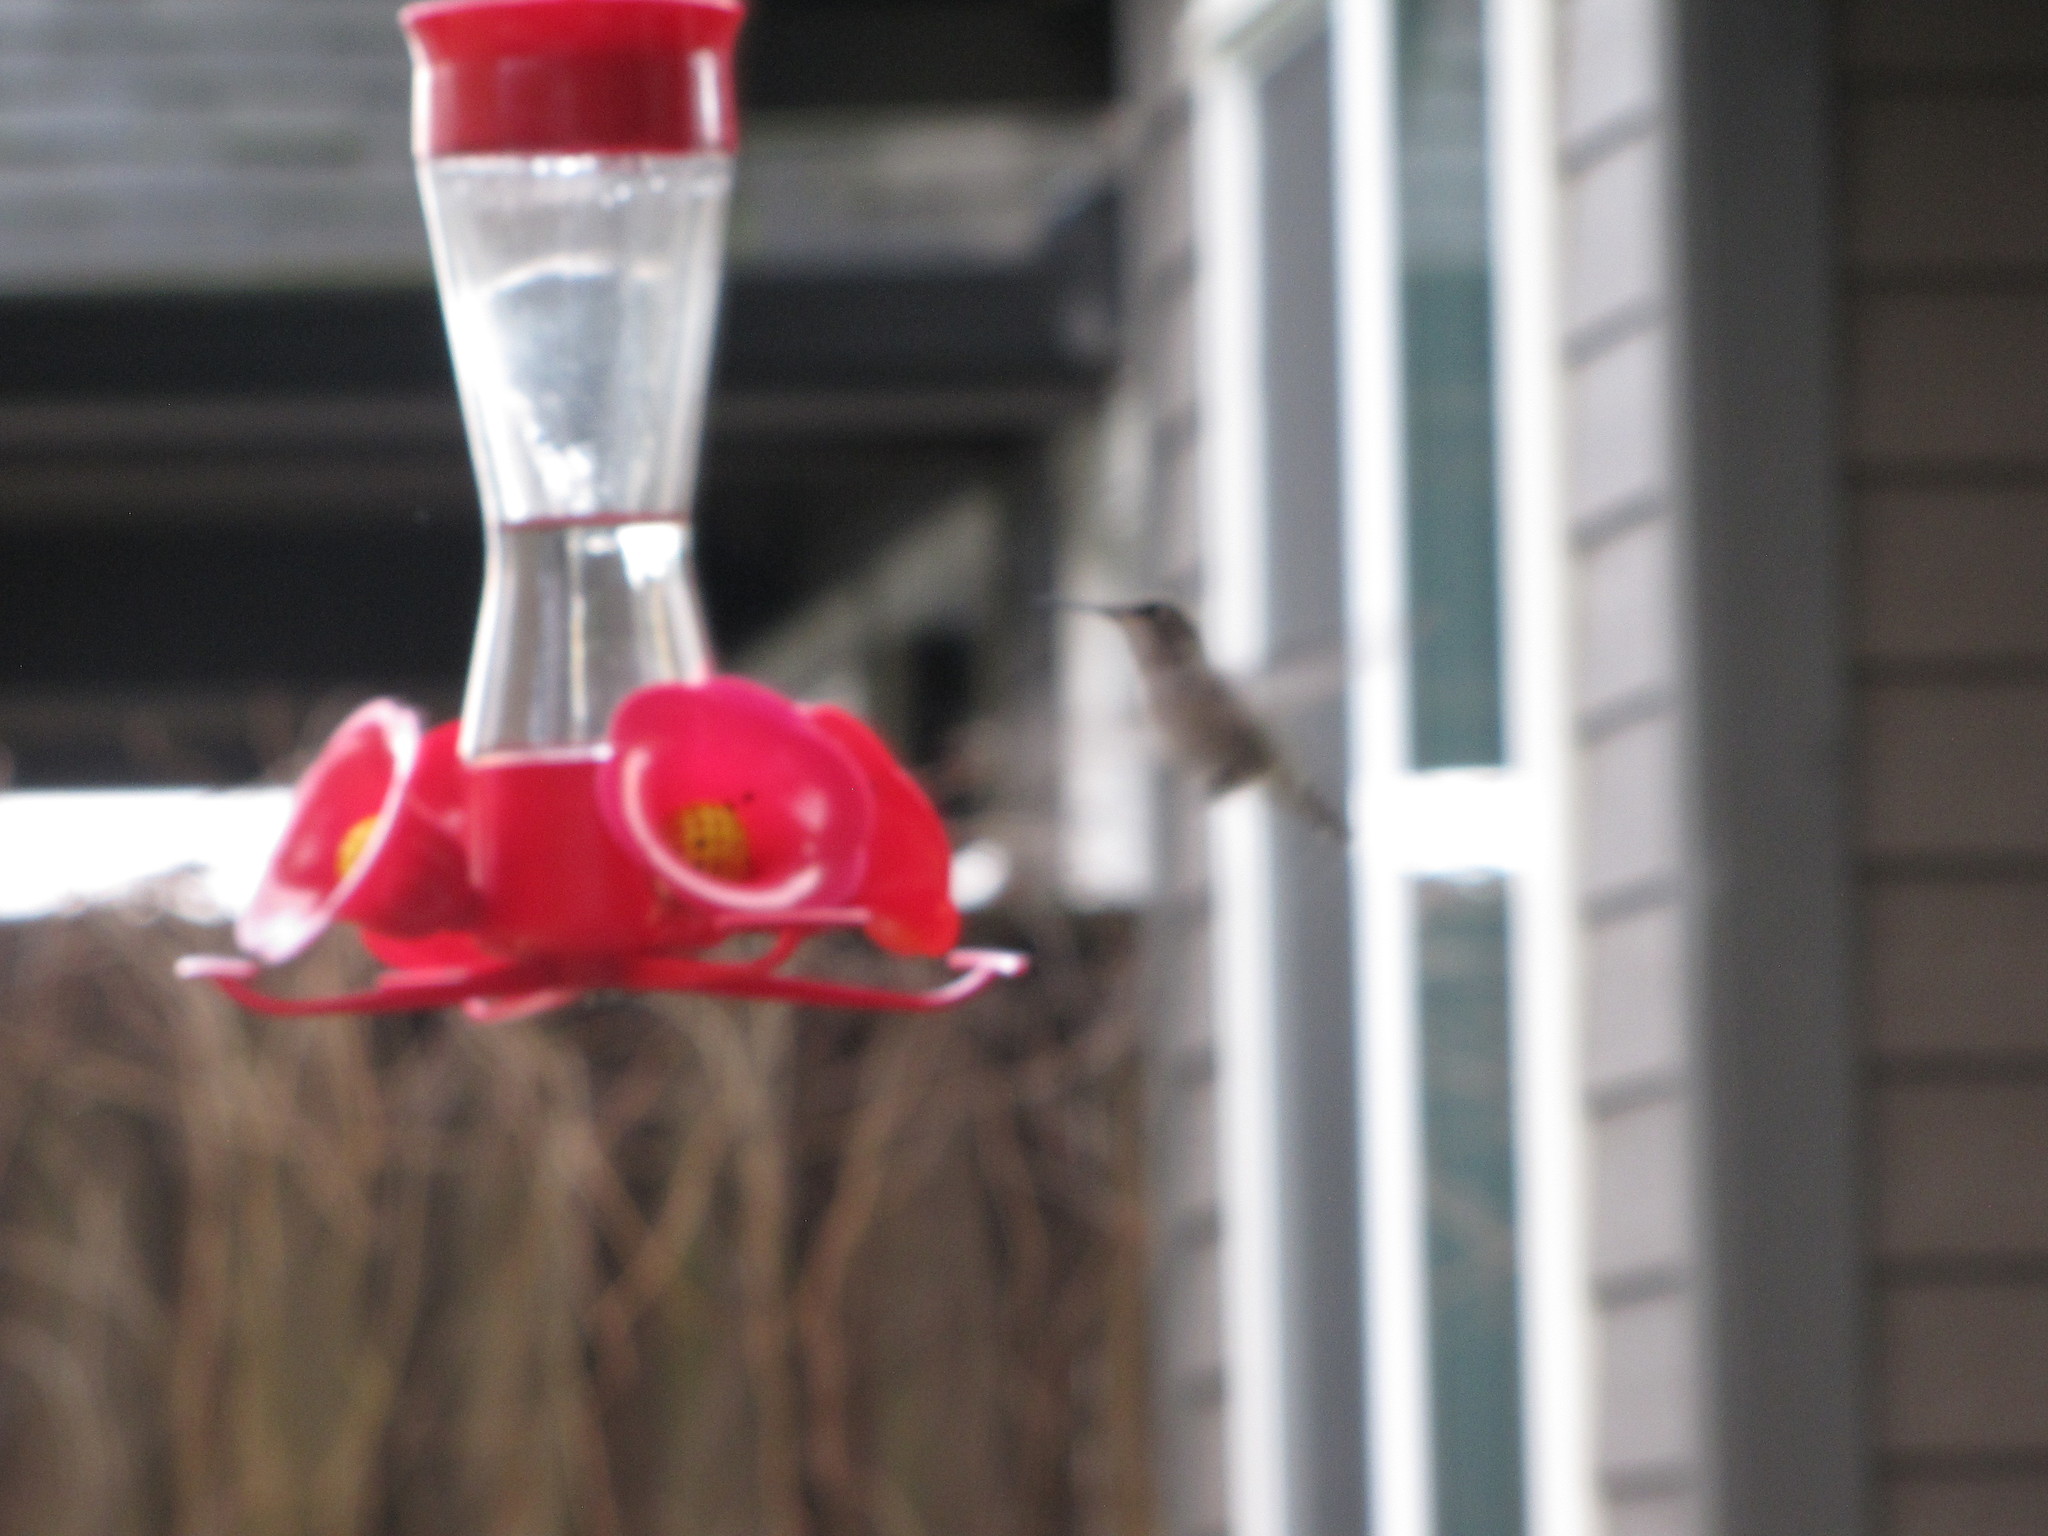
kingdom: Animalia
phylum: Chordata
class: Aves
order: Apodiformes
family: Trochilidae
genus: Calypte
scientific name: Calypte anna
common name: Anna's hummingbird
